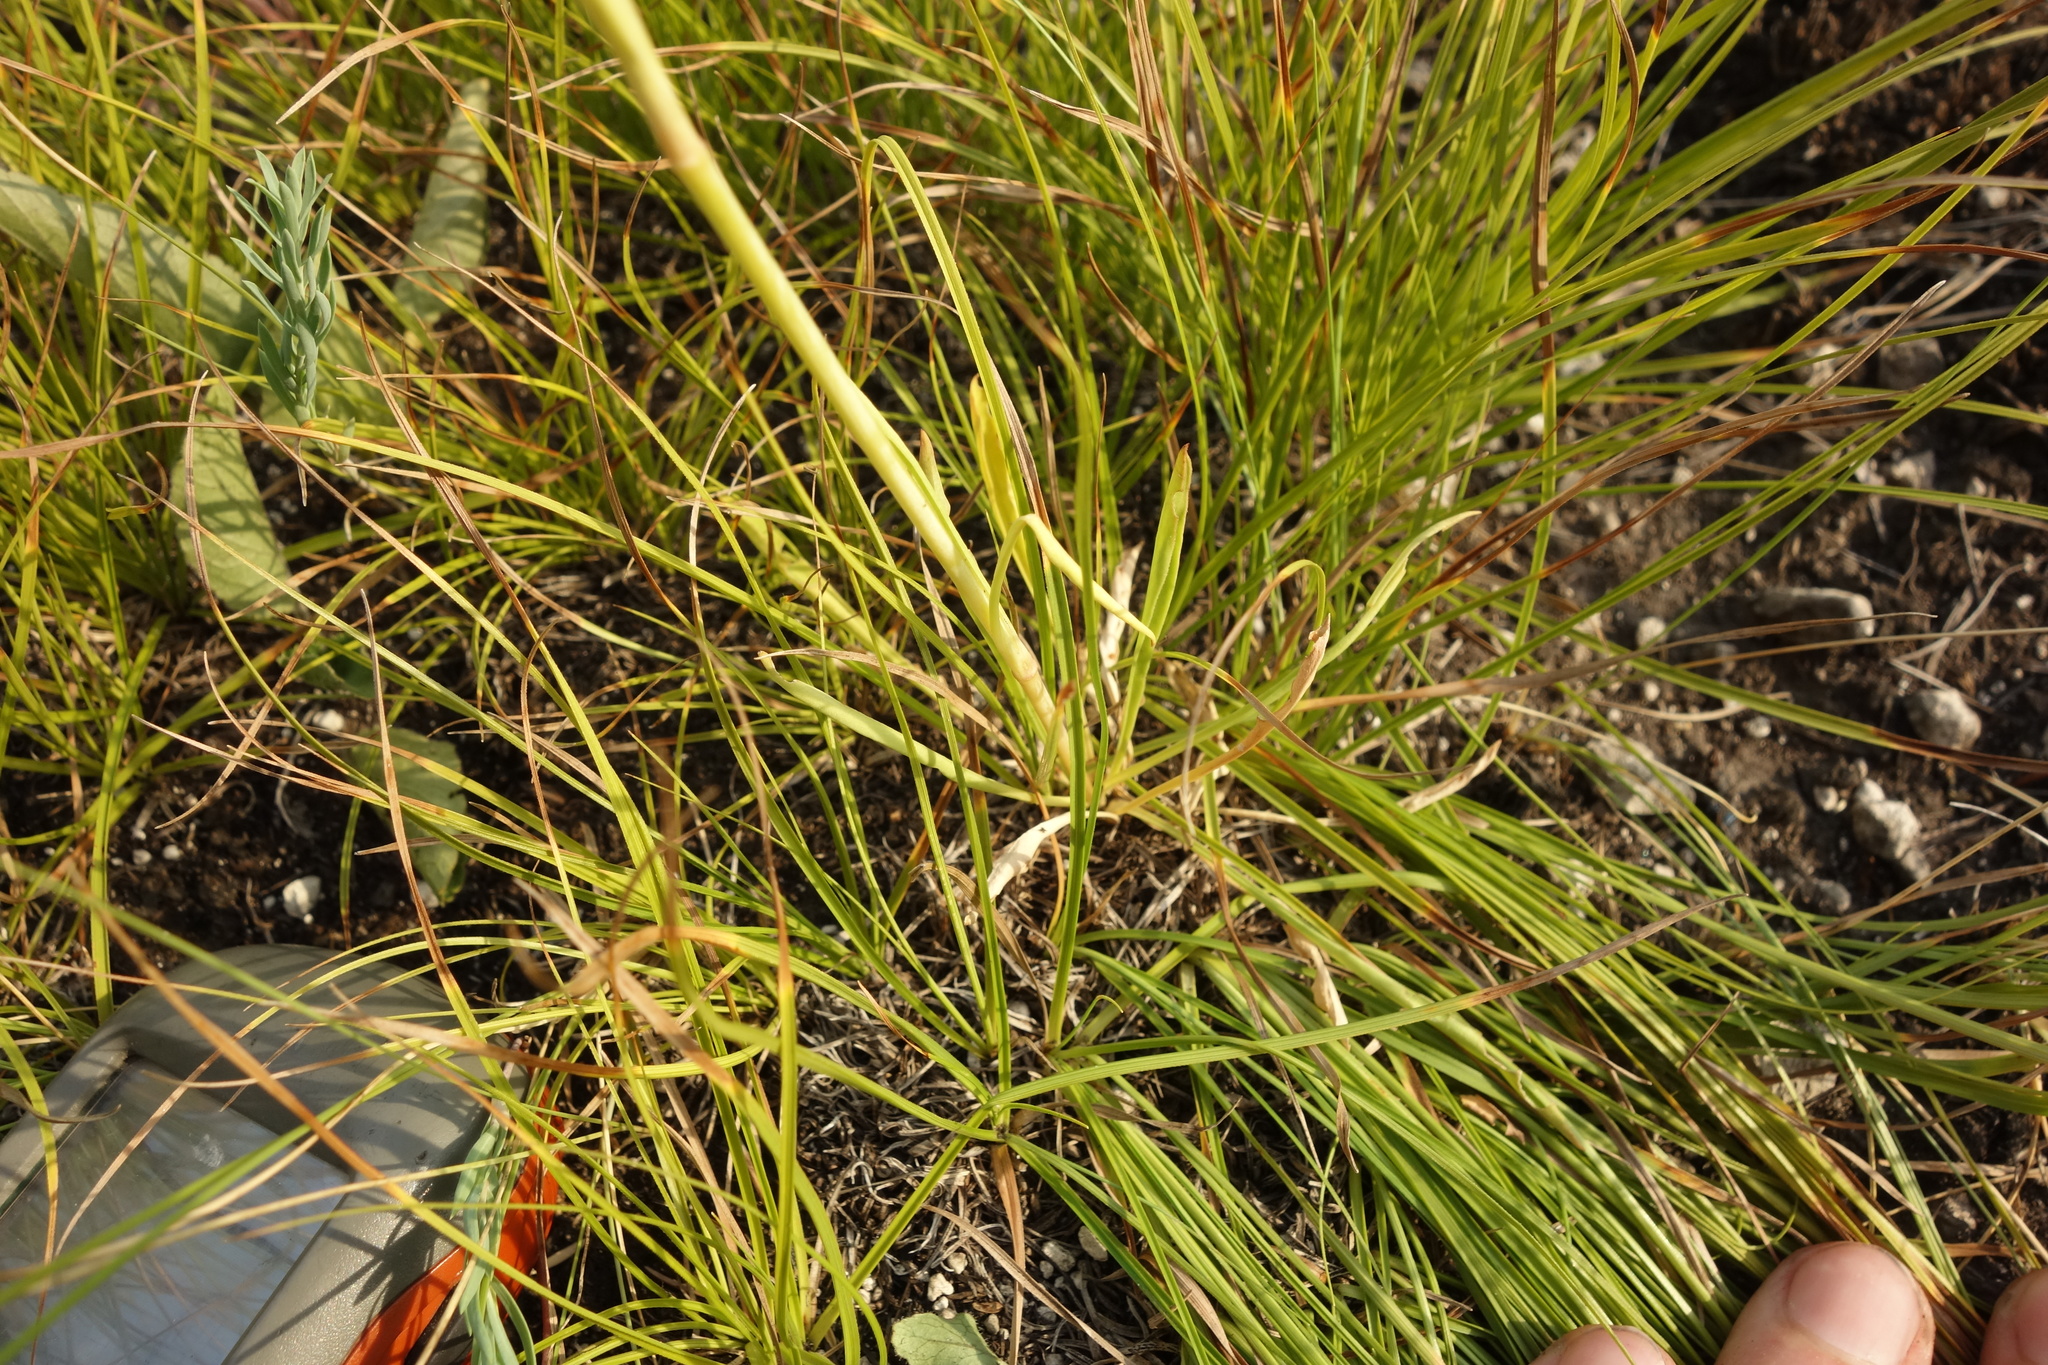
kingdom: Plantae
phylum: Tracheophyta
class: Magnoliopsida
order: Caryophyllales
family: Caryophyllaceae
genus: Silene
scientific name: Silene chlorantha
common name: Yellowgreen catchfly
